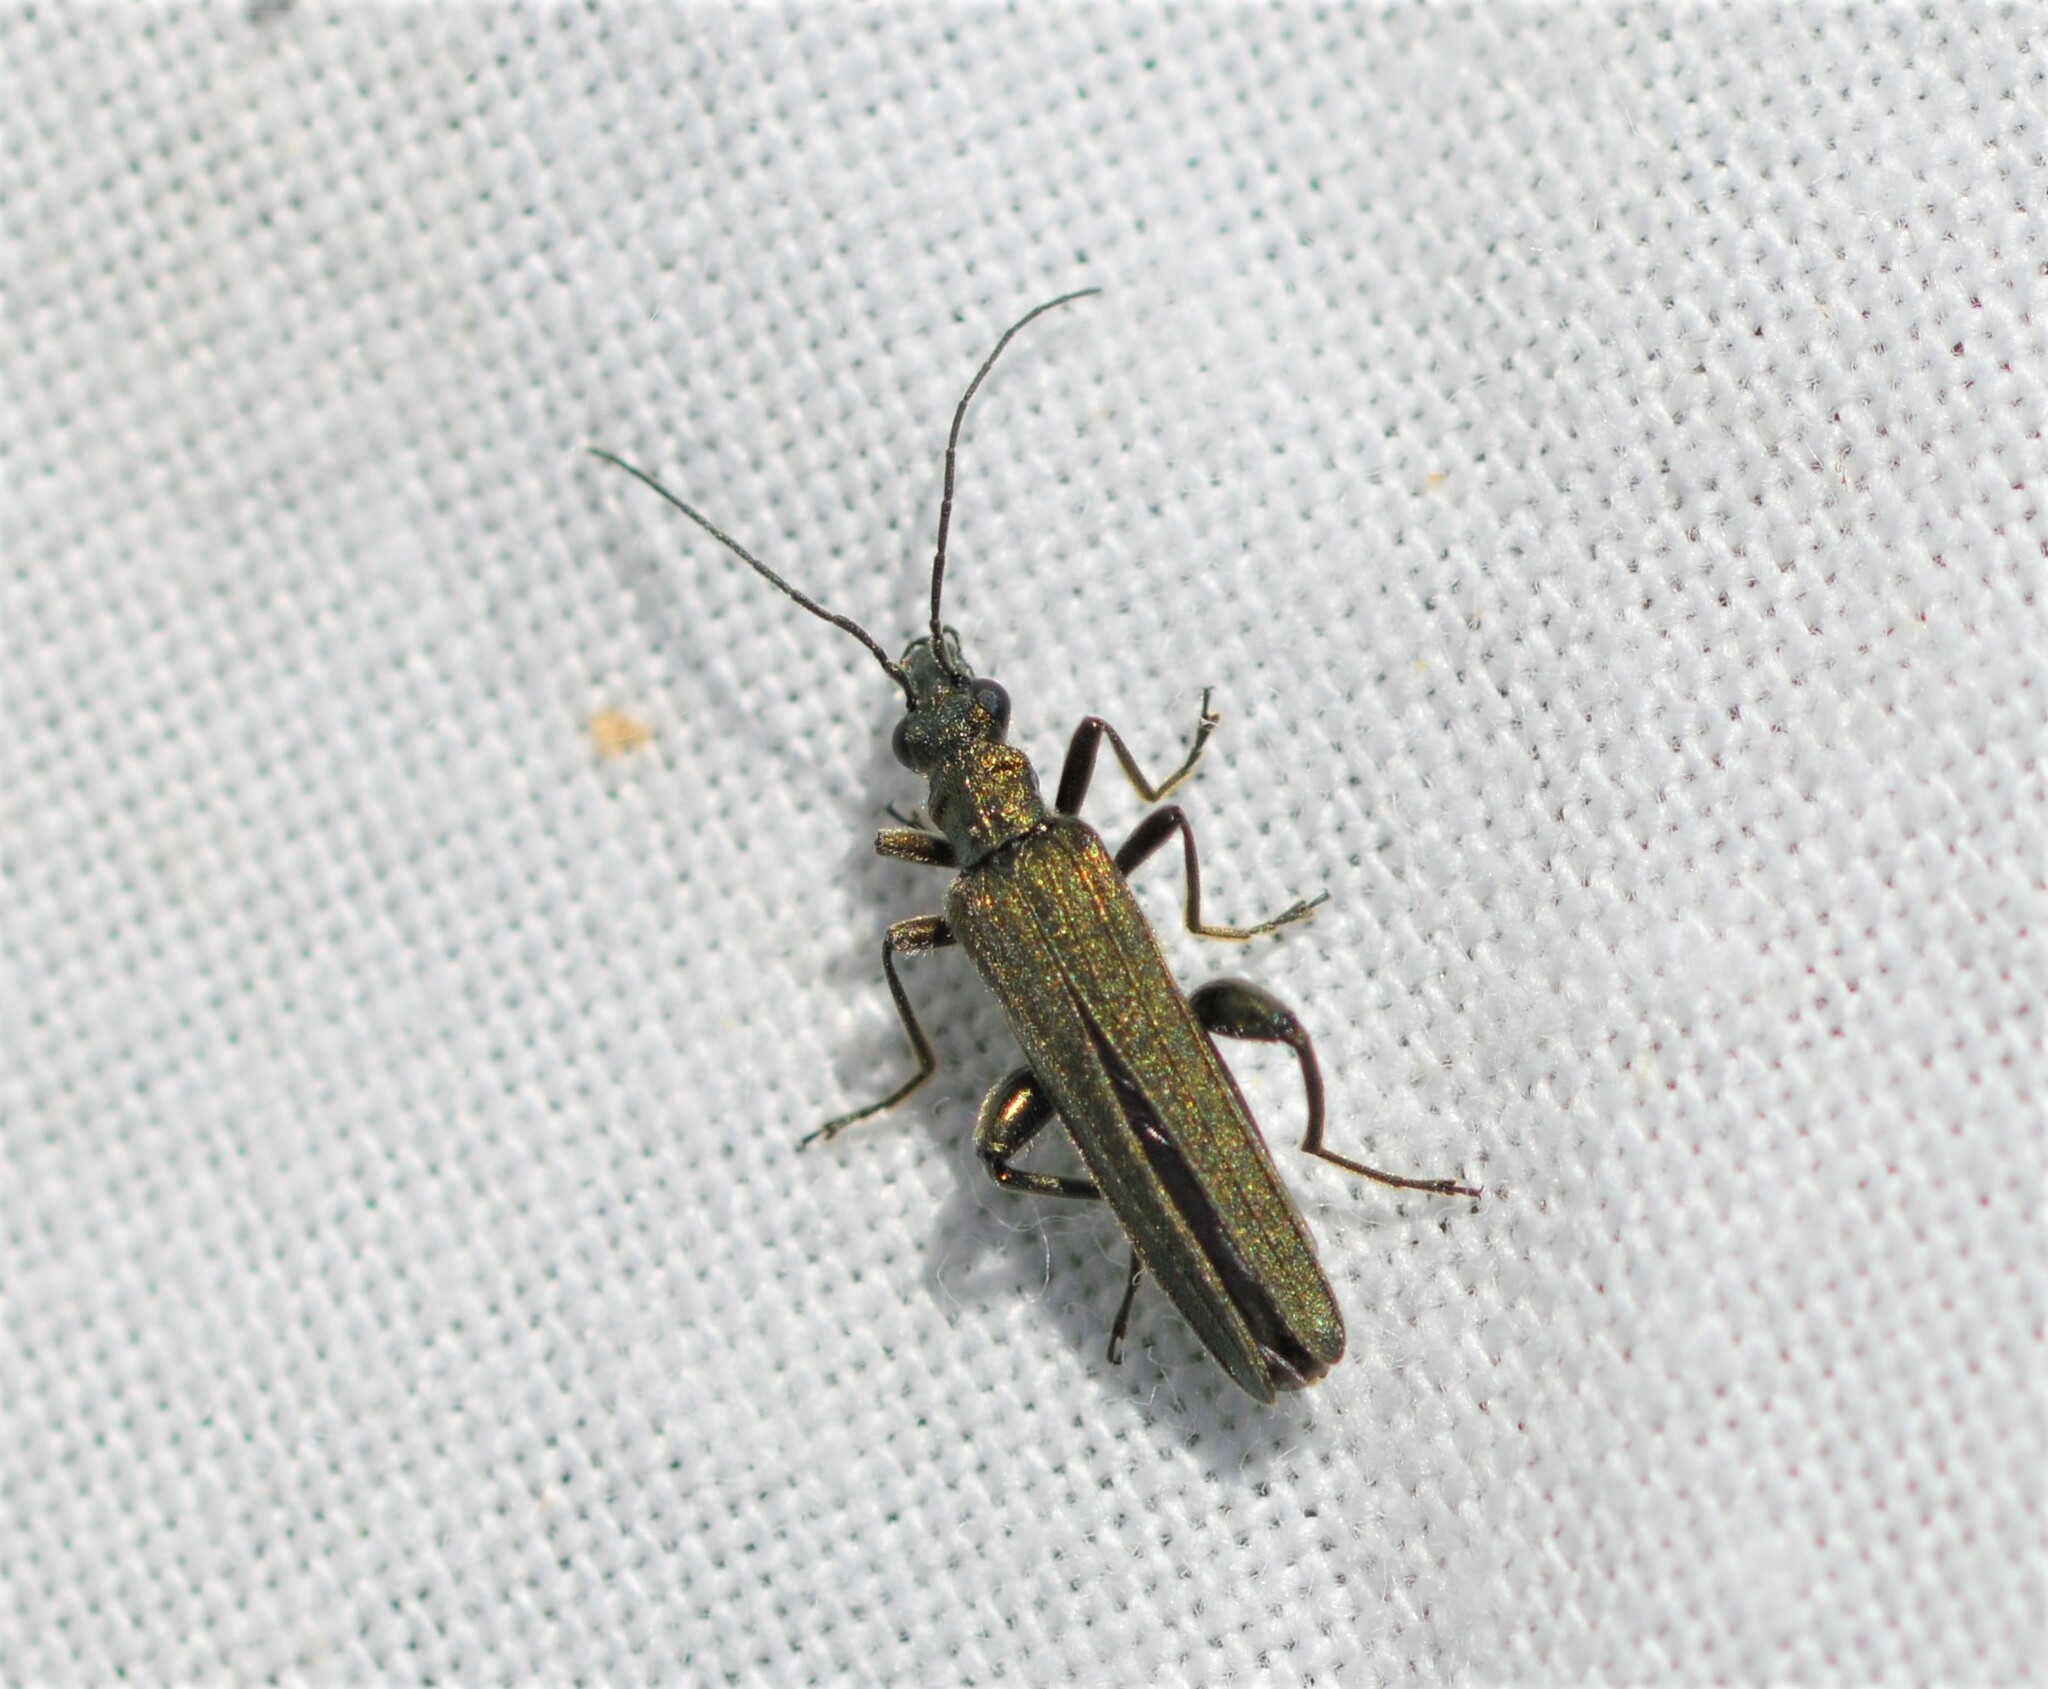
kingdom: Animalia
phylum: Arthropoda
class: Insecta
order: Coleoptera
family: Oedemeridae
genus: Oedemera
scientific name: Oedemera virescens
